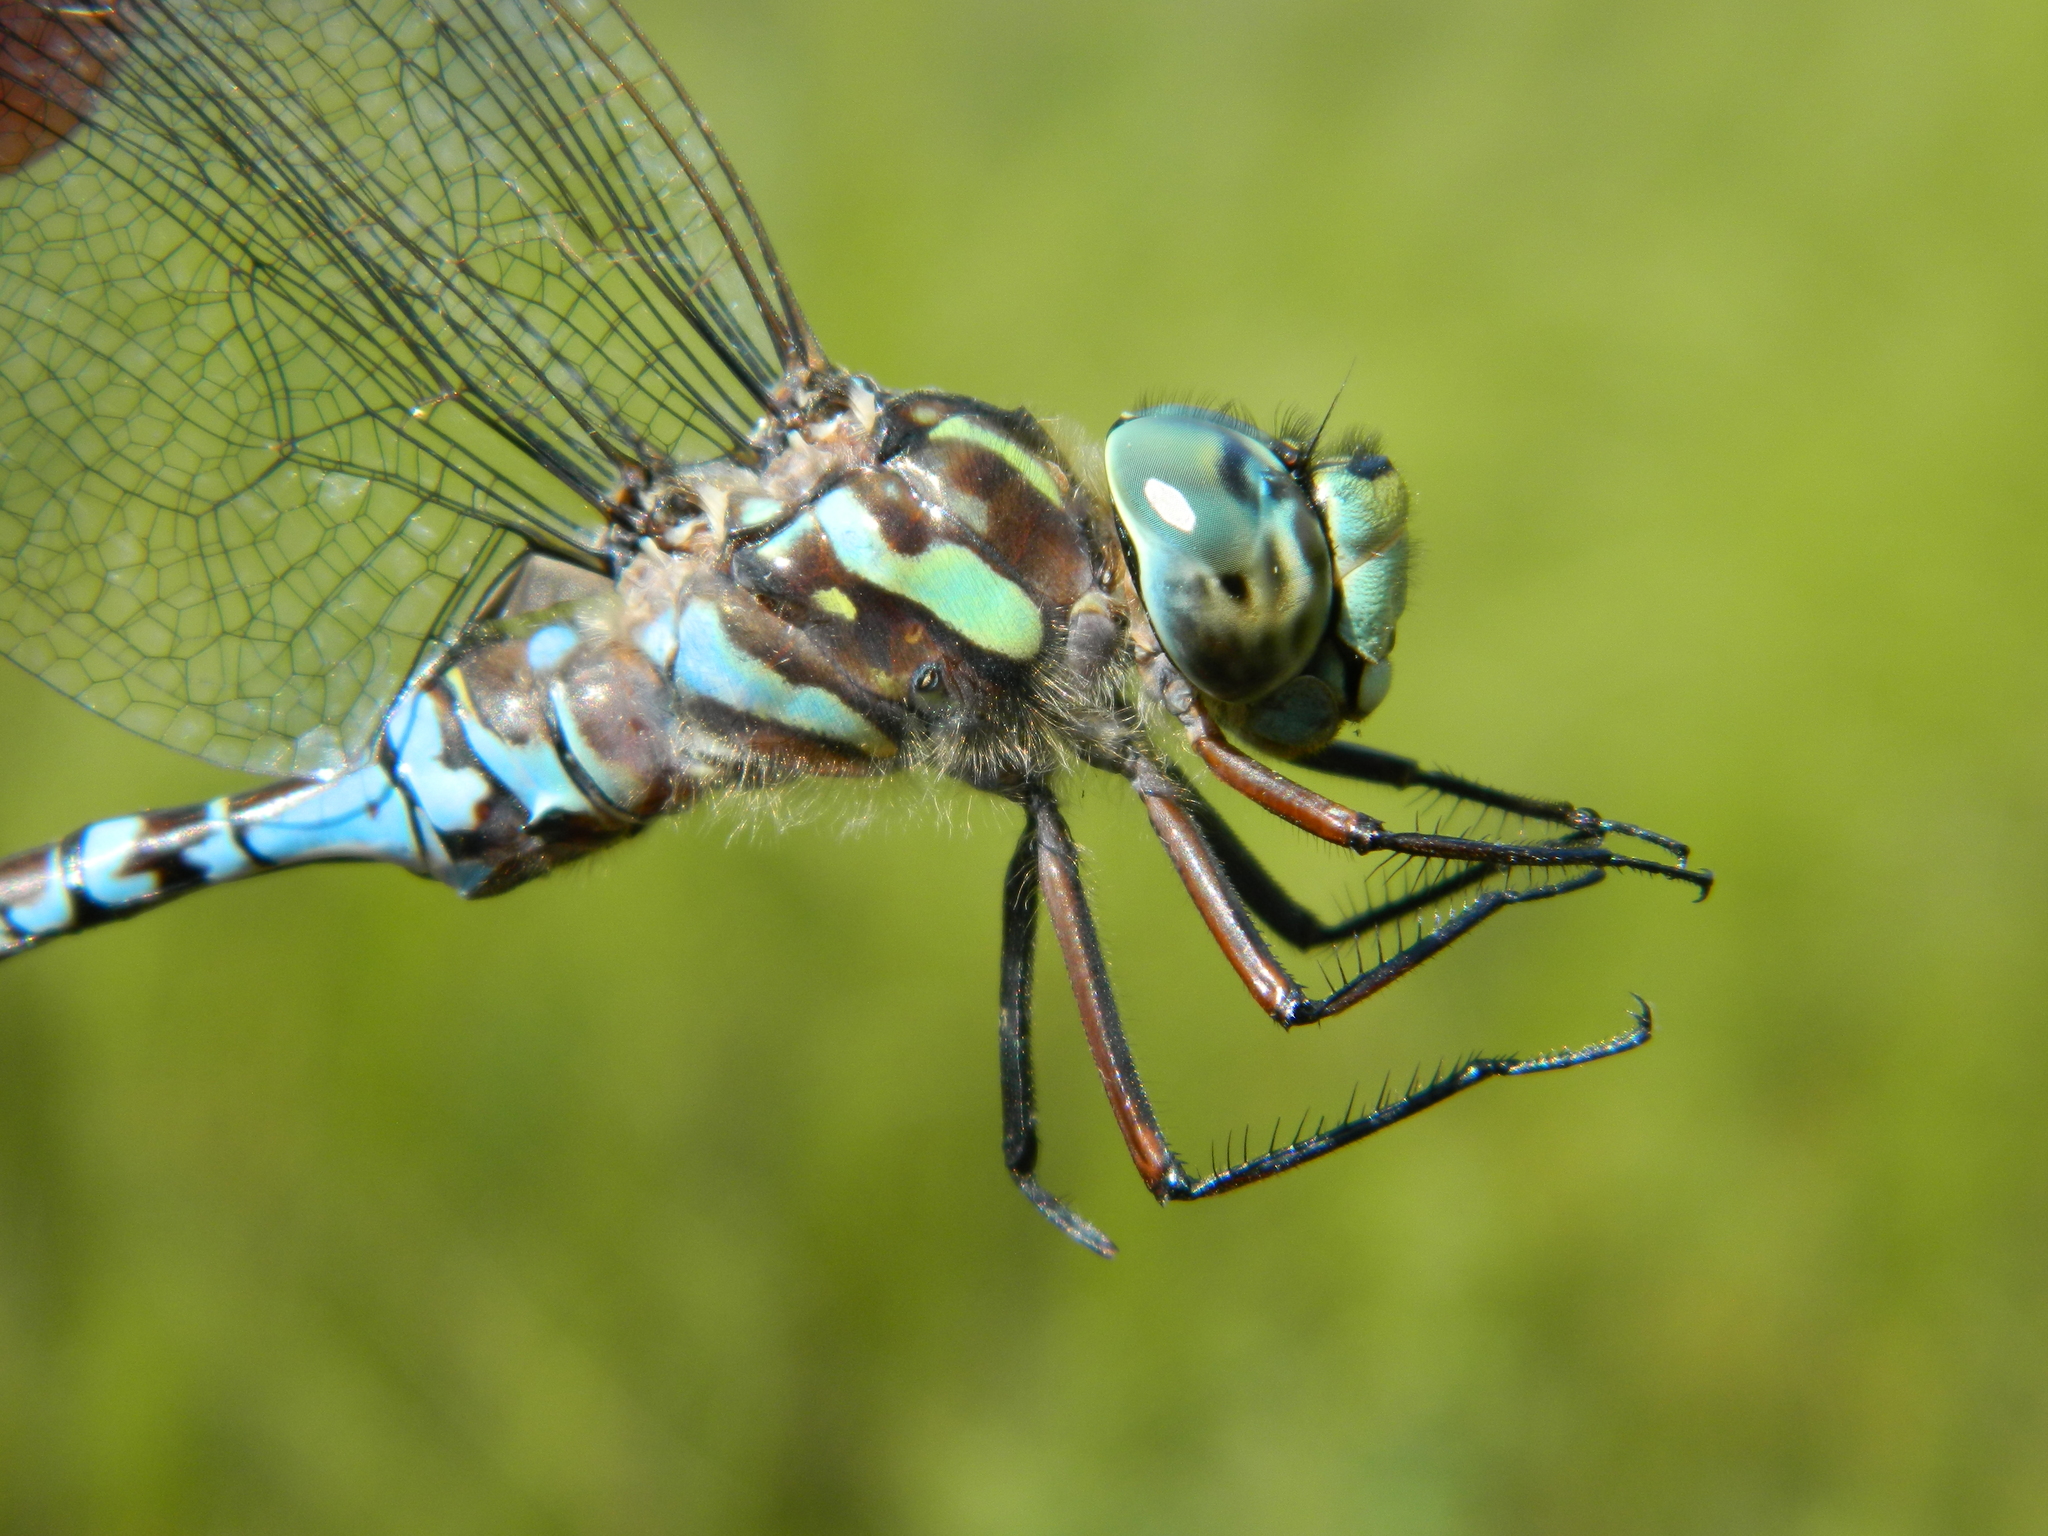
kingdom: Animalia
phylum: Arthropoda
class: Insecta
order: Odonata
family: Aeshnidae
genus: Aeshna
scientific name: Aeshna canadensis
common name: Canada darner
